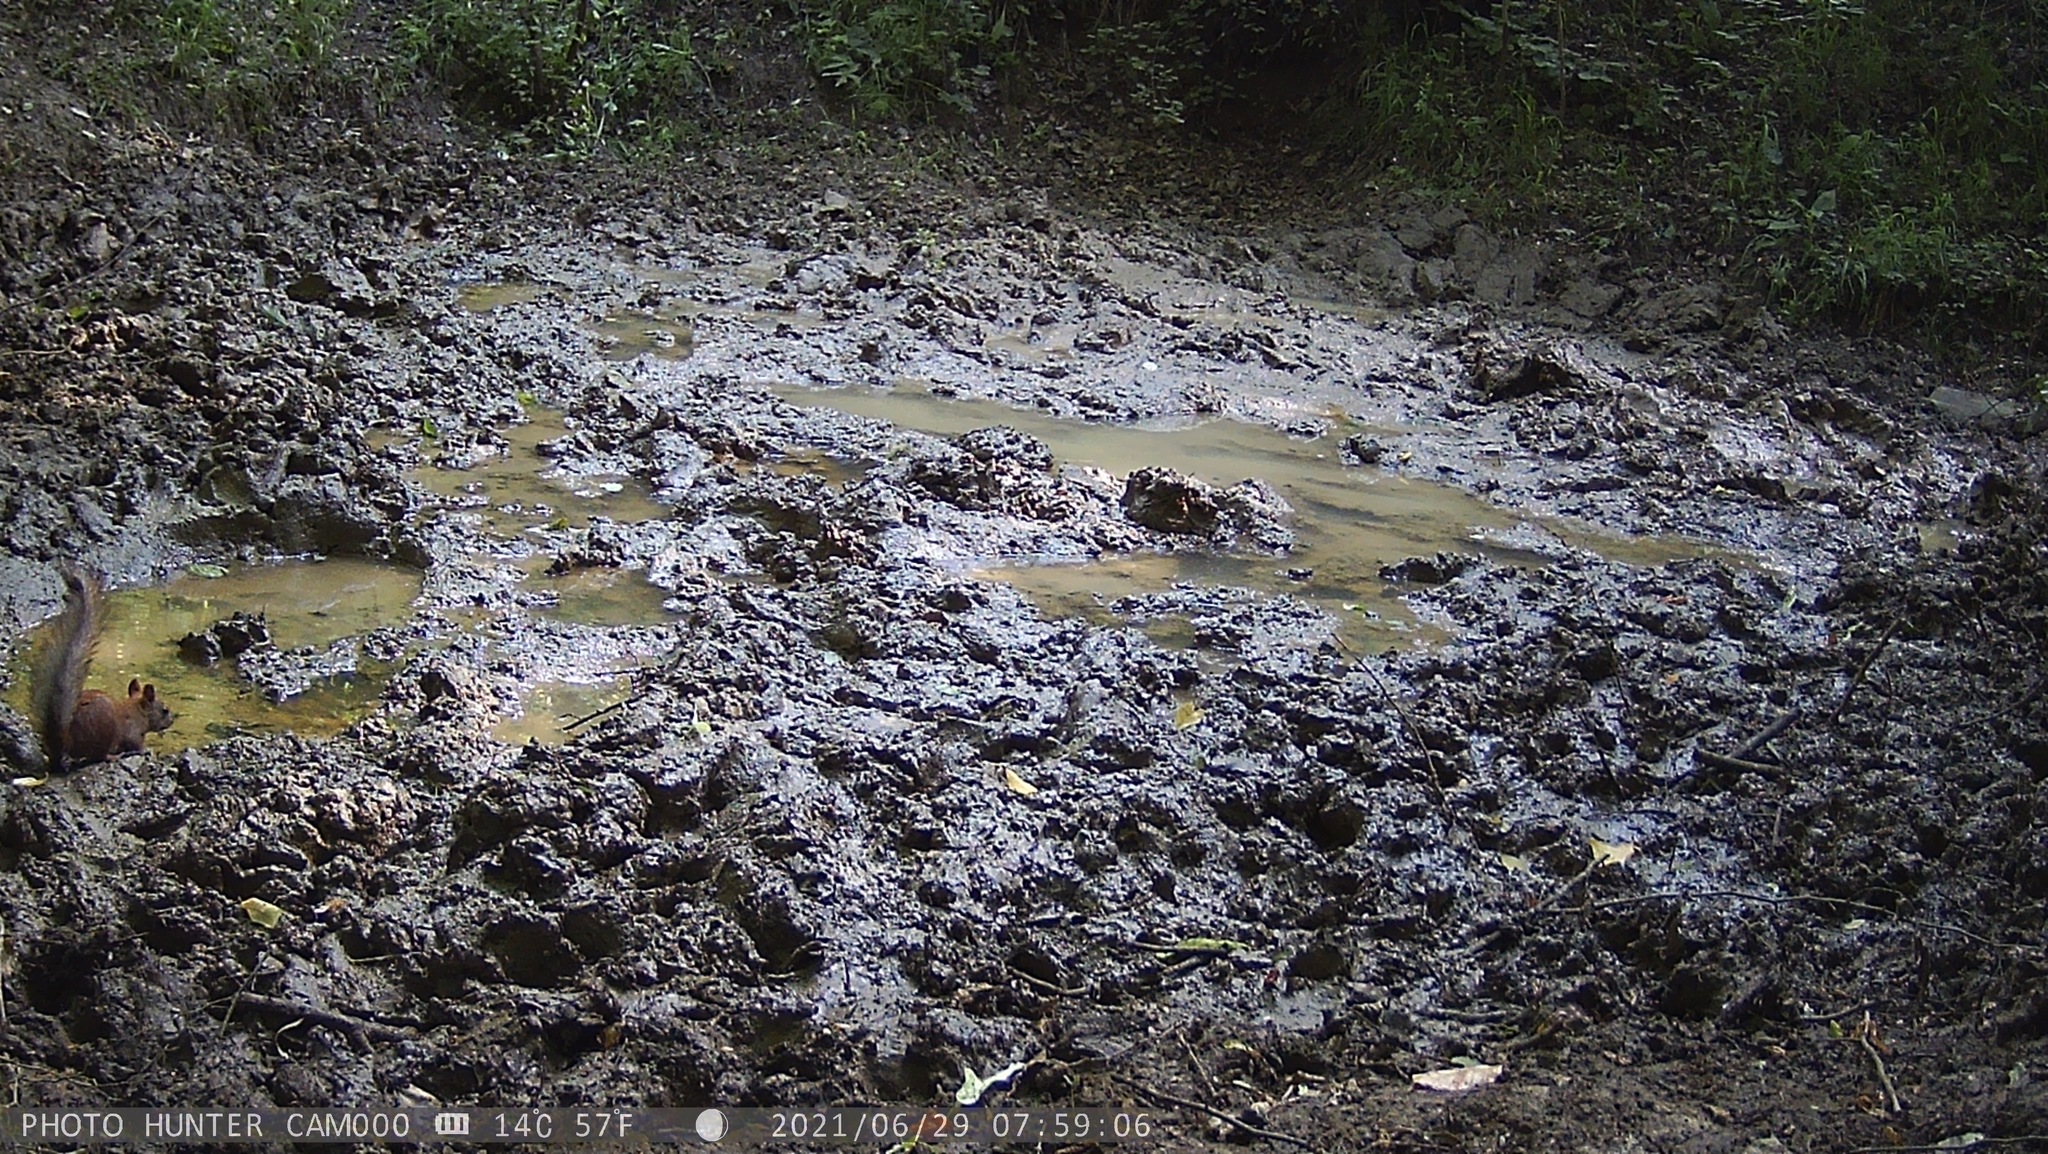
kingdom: Animalia
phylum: Chordata
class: Mammalia
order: Rodentia
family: Sciuridae
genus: Sciurus
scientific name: Sciurus vulgaris
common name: Eurasian red squirrel
